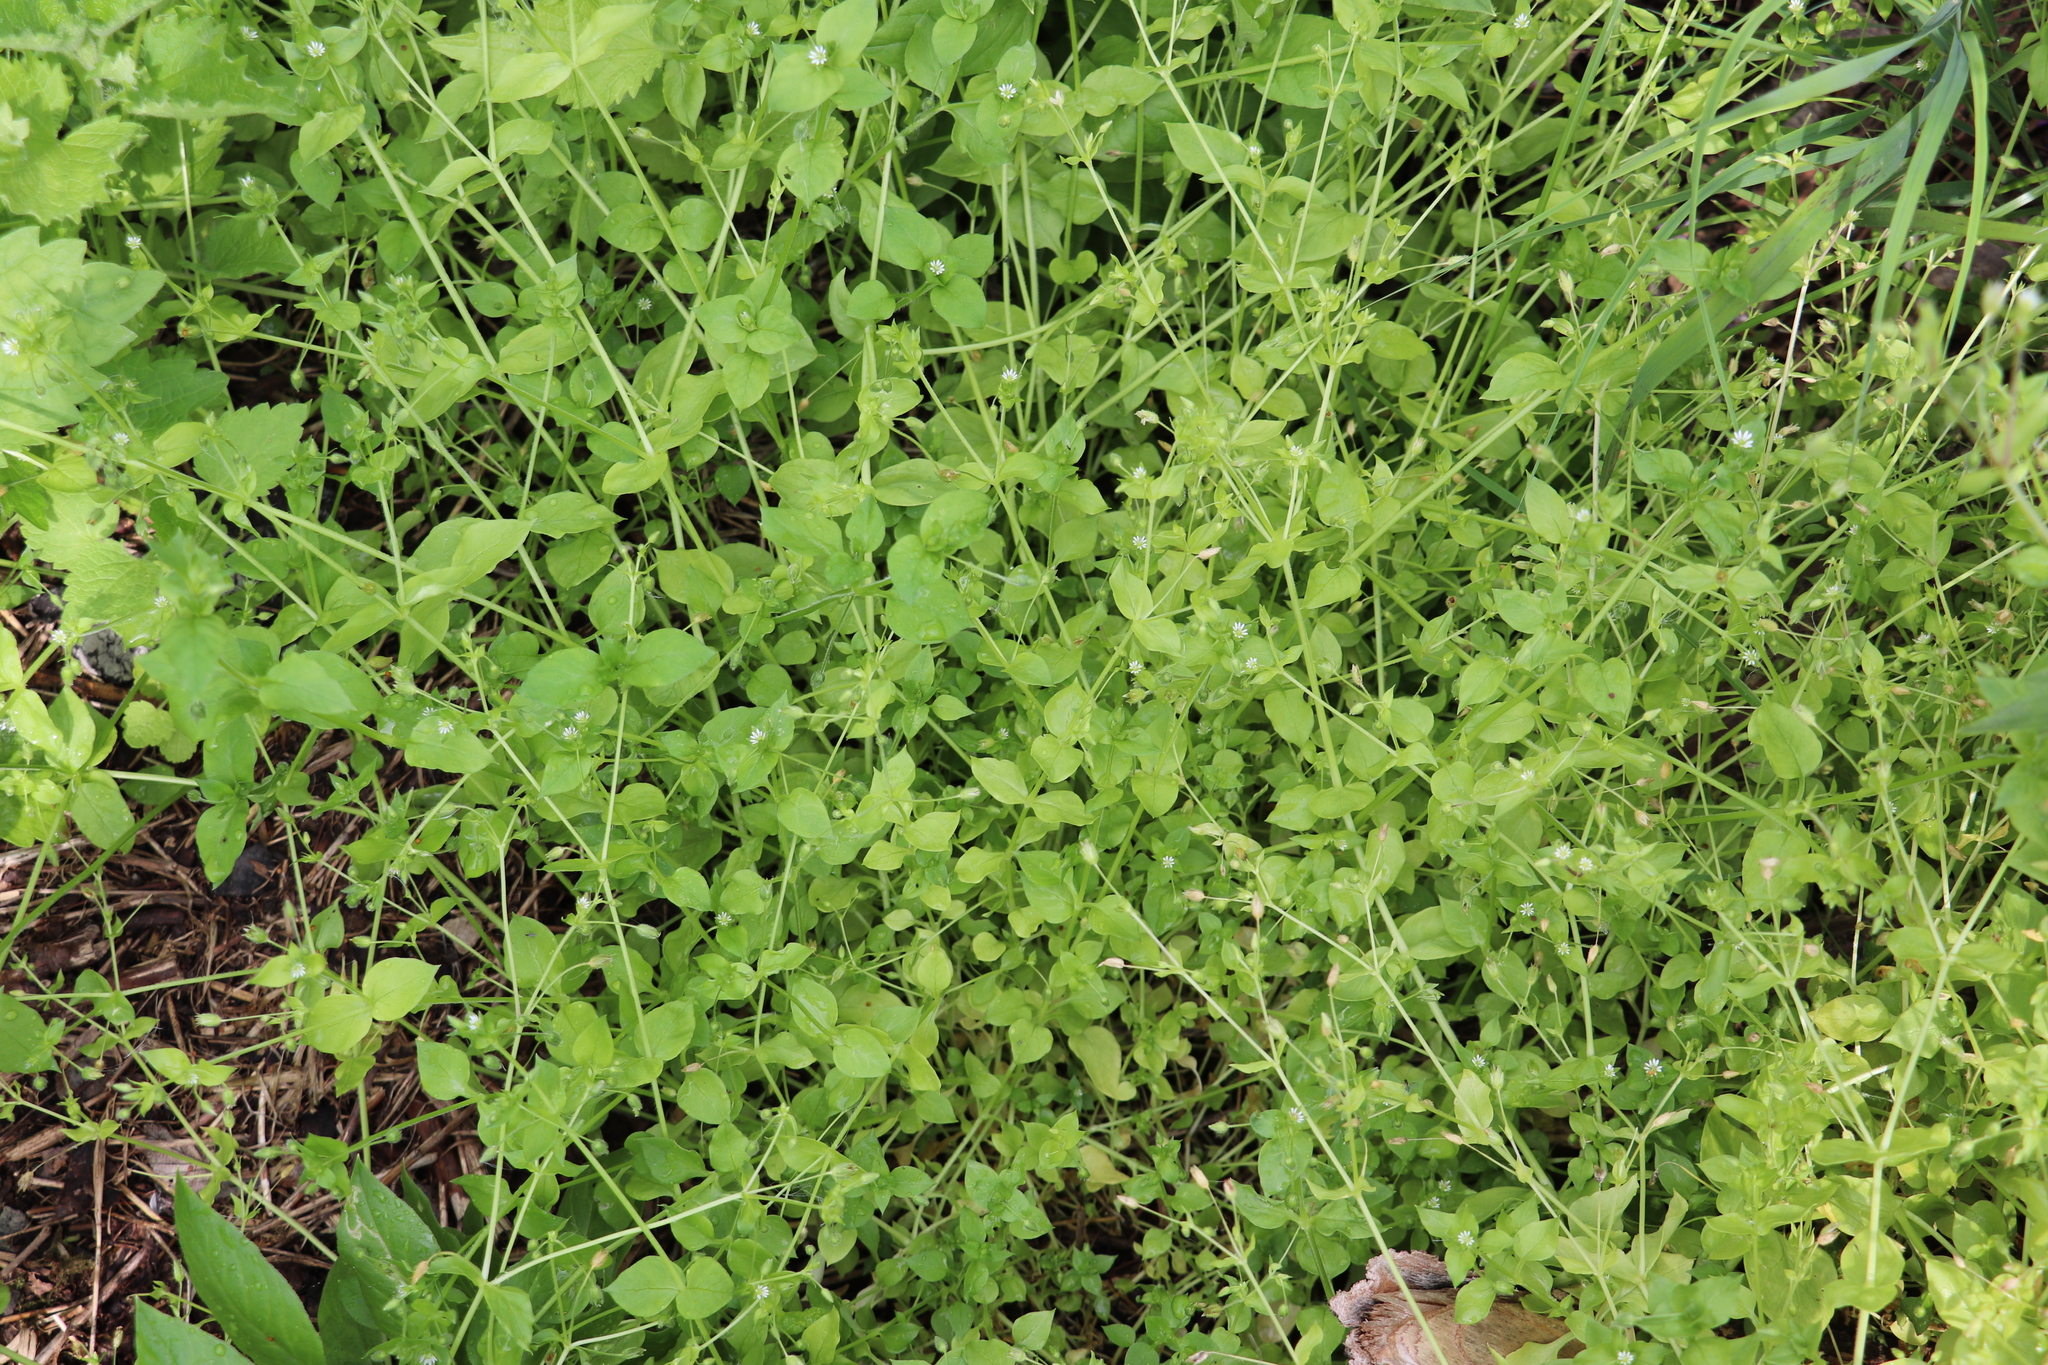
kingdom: Plantae
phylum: Tracheophyta
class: Magnoliopsida
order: Caryophyllales
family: Caryophyllaceae
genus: Stellaria
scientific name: Stellaria media
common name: Common chickweed
